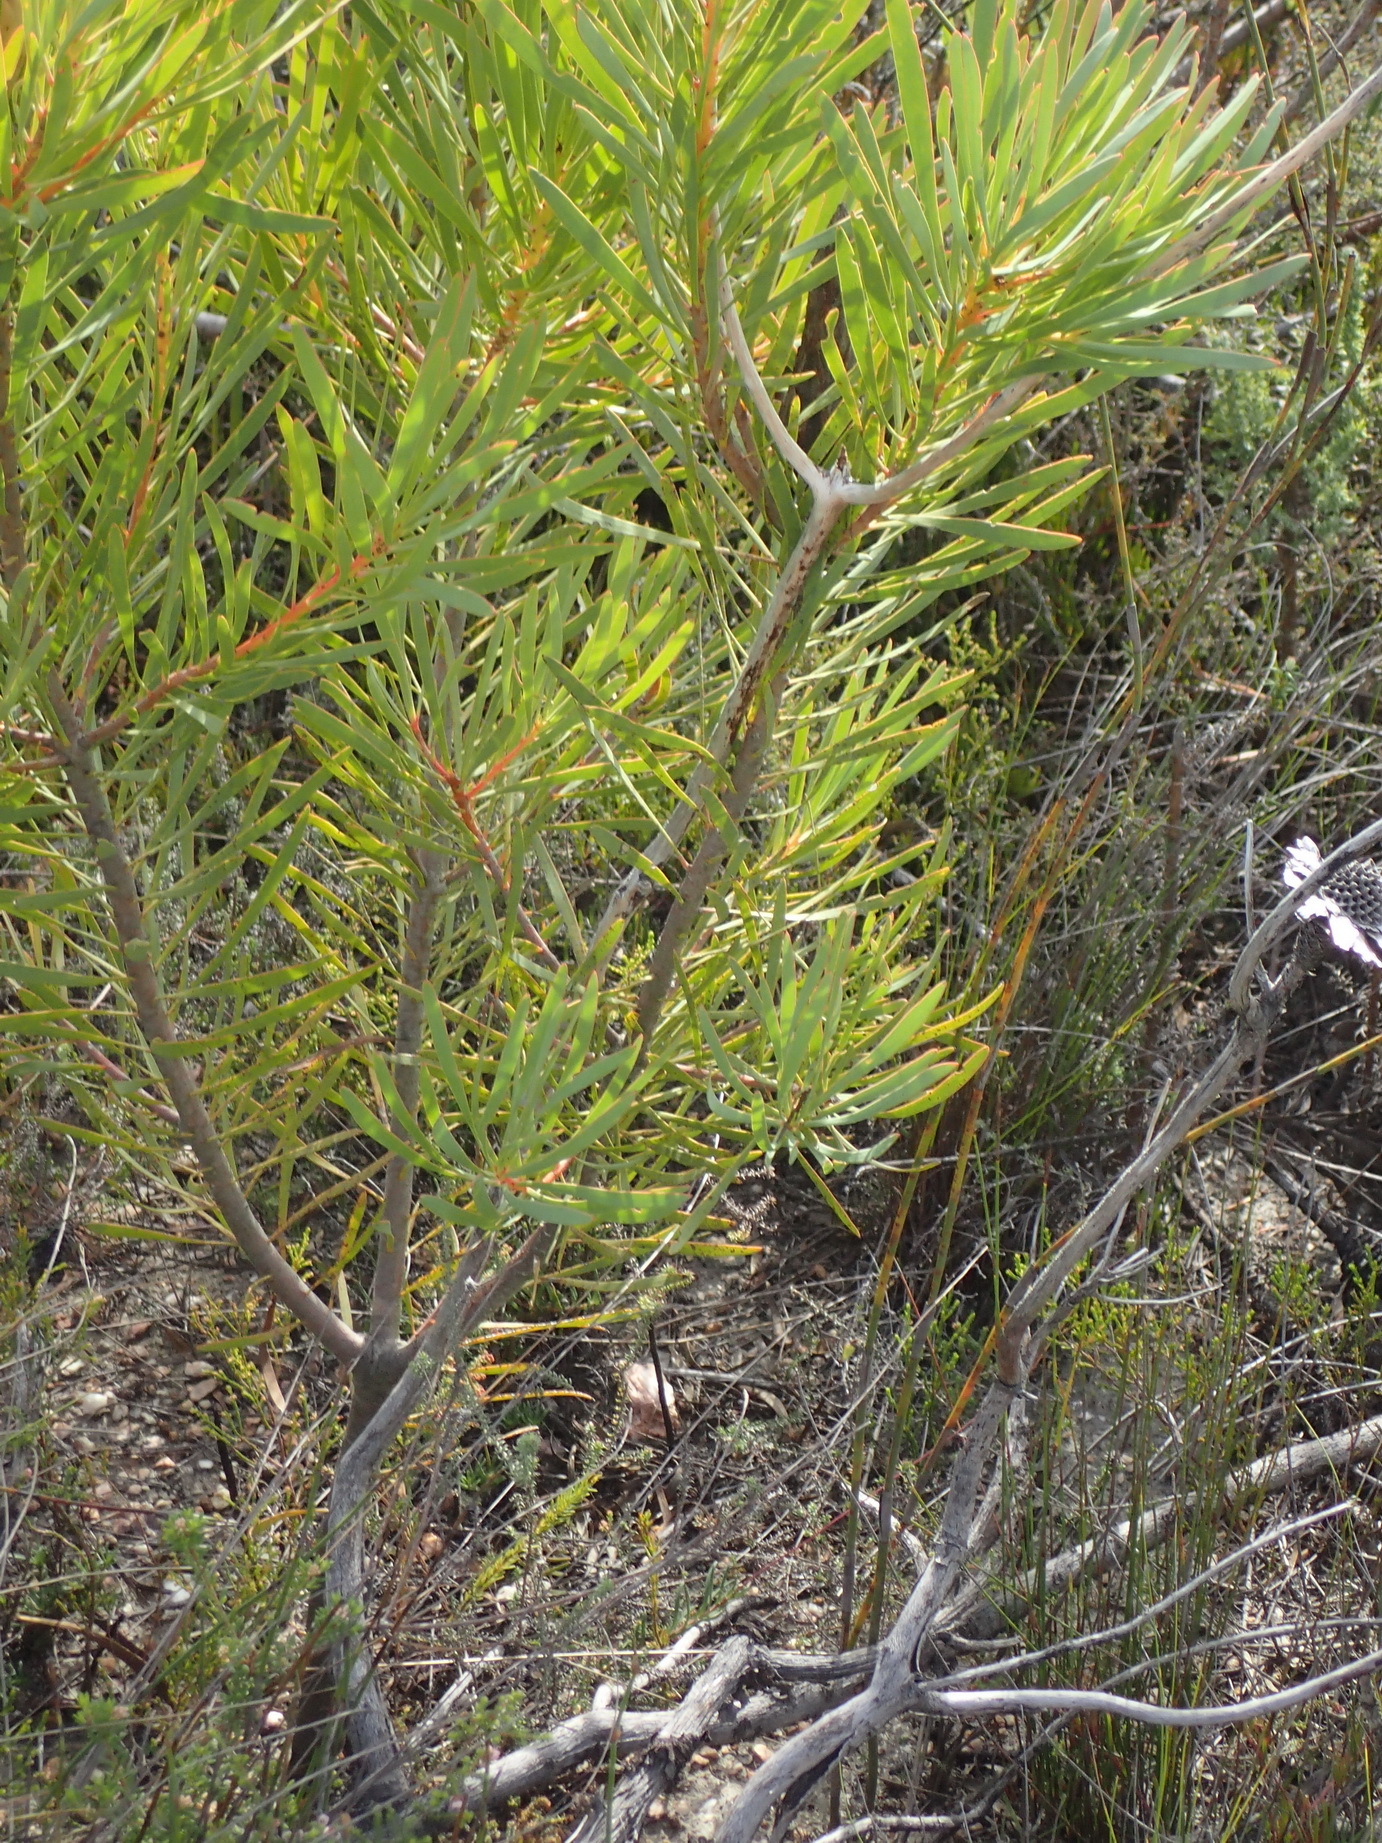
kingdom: Plantae
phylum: Tracheophyta
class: Magnoliopsida
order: Proteales
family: Proteaceae
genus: Protea
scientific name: Protea repens
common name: Sugarbush
